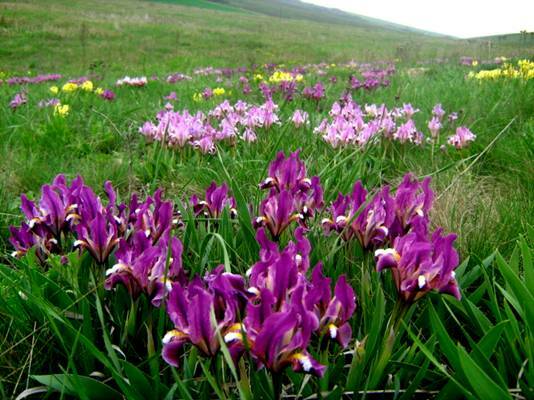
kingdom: Plantae
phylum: Tracheophyta
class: Liliopsida
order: Asparagales
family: Iridaceae
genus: Iris
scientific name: Iris pumila
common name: Dwarf iris
